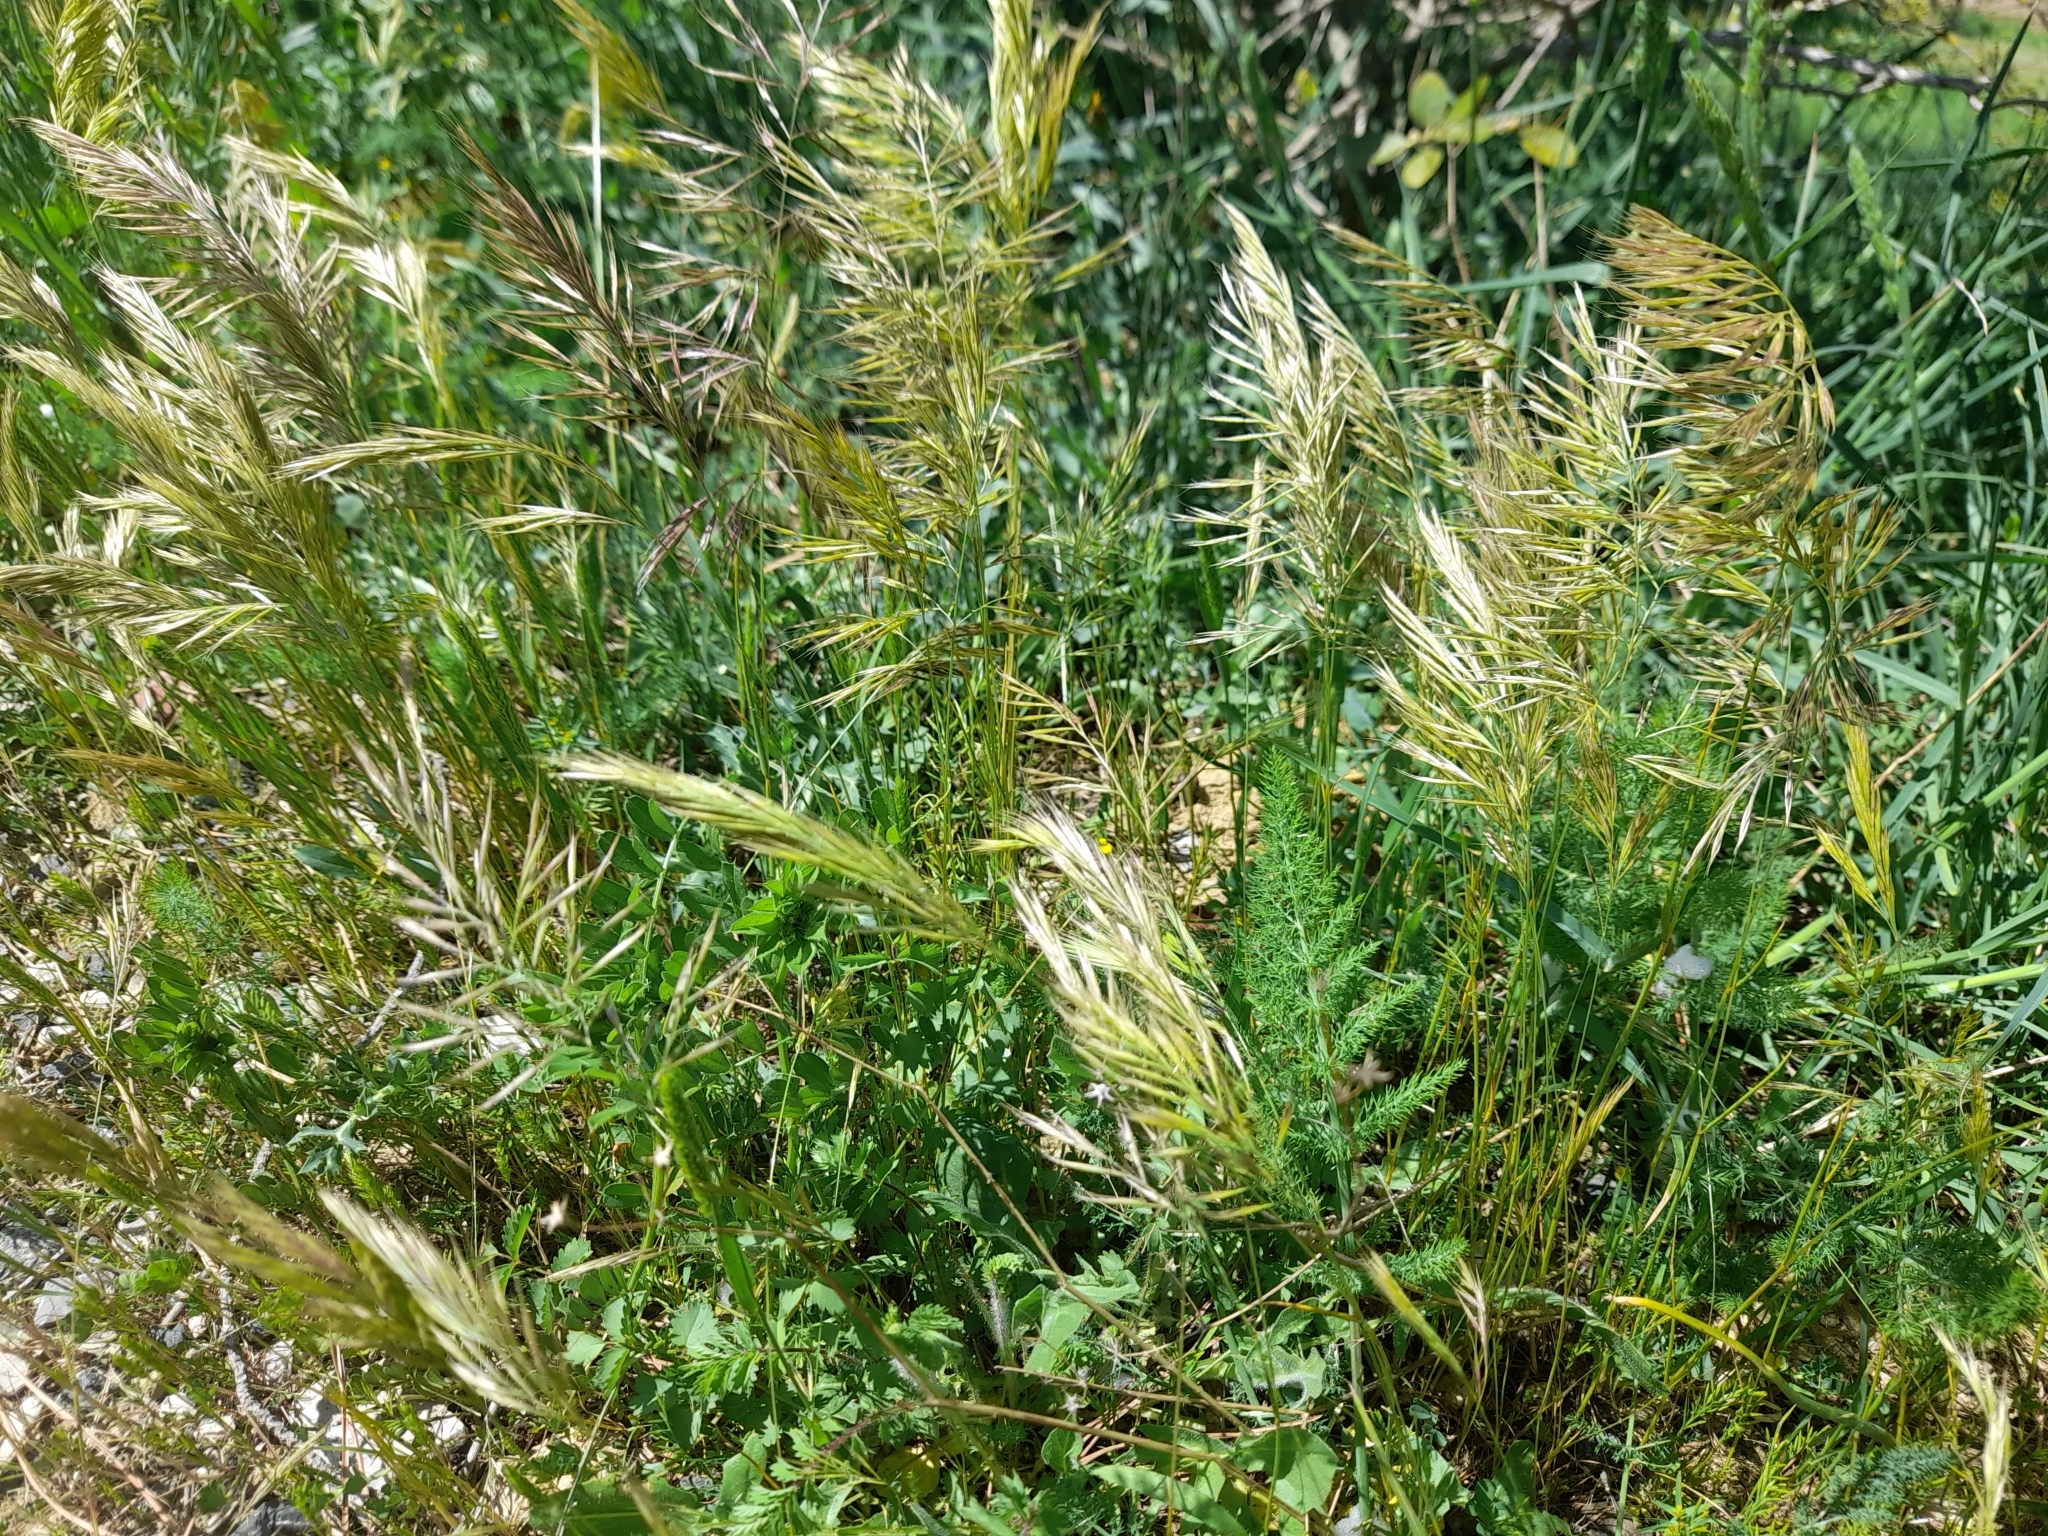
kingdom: Plantae
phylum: Tracheophyta
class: Liliopsida
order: Poales
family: Poaceae
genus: Festuca
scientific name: Festuca ligustica
